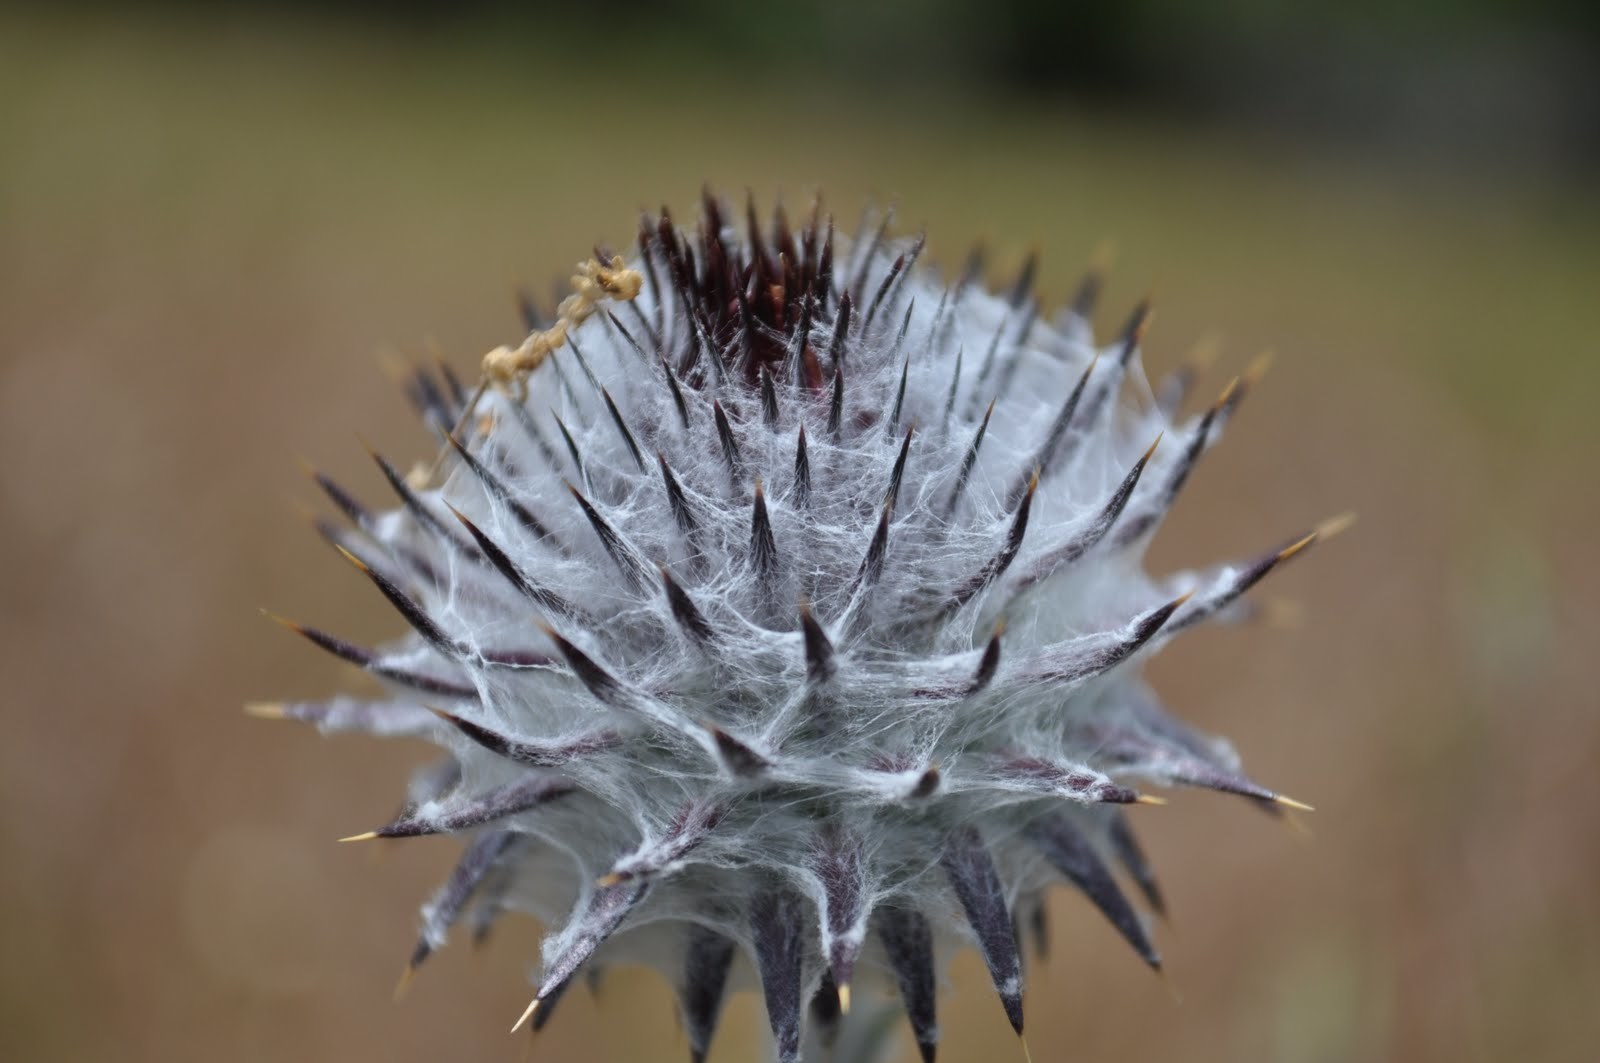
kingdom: Plantae
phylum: Tracheophyta
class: Magnoliopsida
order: Asterales
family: Asteraceae
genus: Cirsium
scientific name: Cirsium occidentale
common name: Western thistle
